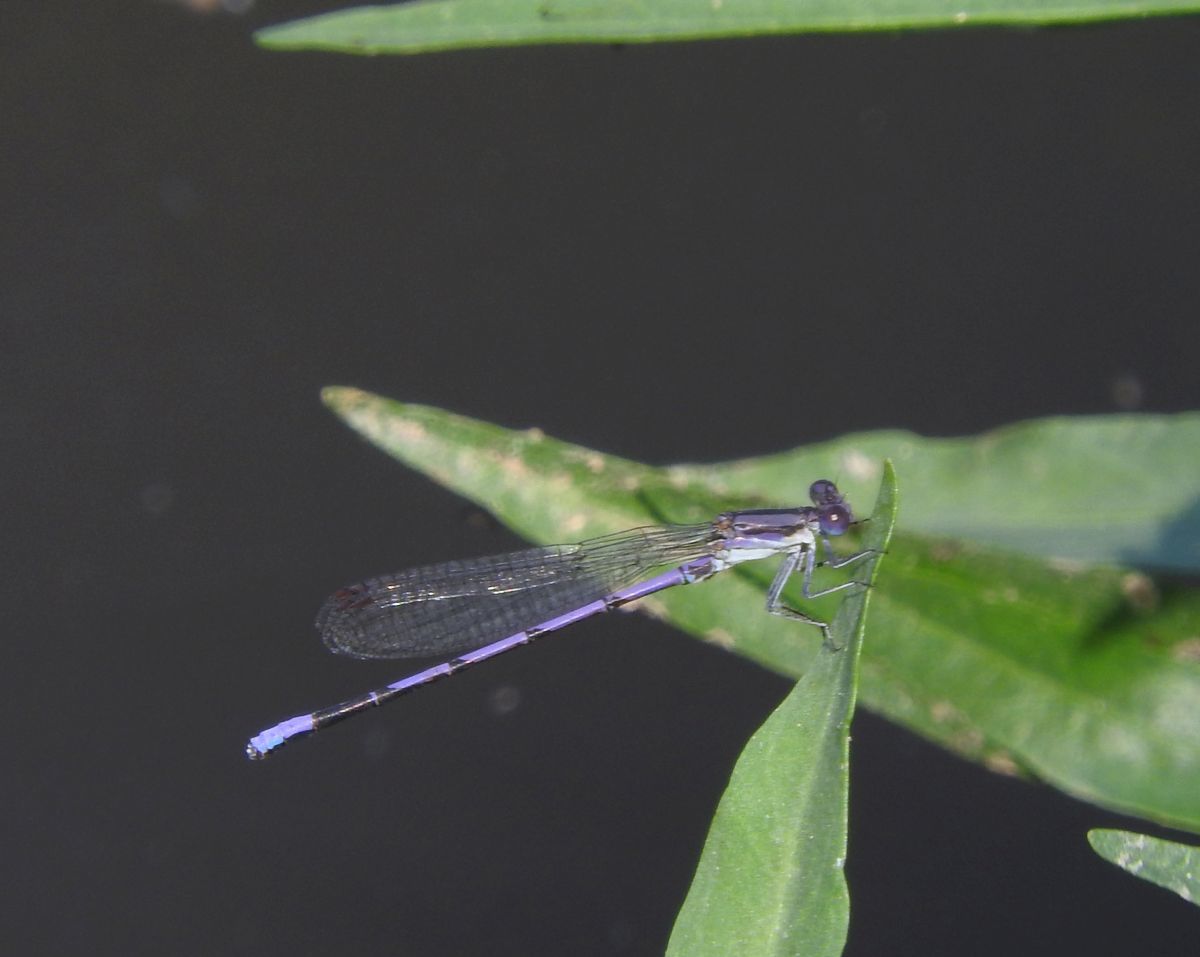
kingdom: Animalia
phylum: Arthropoda
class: Insecta
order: Odonata
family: Coenagrionidae
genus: Argia
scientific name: Argia fumipennis
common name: Variable dancer
